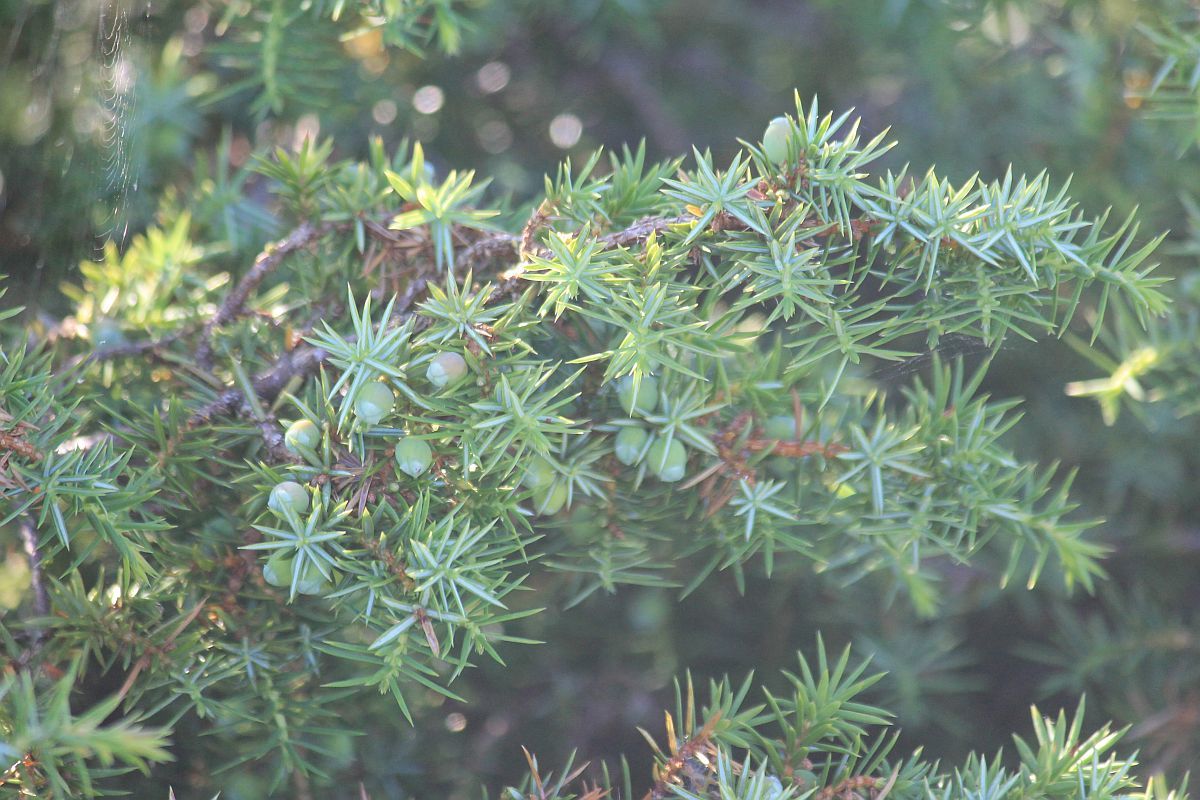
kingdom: Plantae
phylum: Tracheophyta
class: Pinopsida
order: Pinales
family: Cupressaceae
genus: Juniperus
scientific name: Juniperus communis
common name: Common juniper
